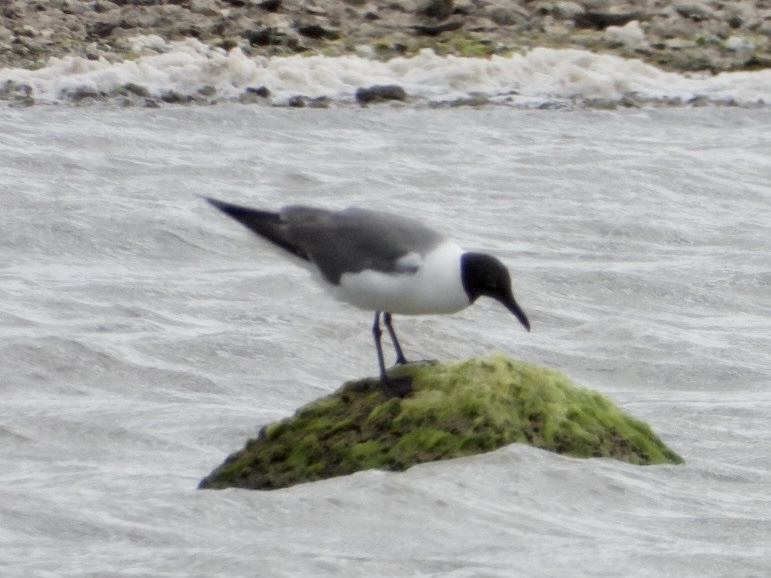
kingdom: Animalia
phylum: Chordata
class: Aves
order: Charadriiformes
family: Laridae
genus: Leucophaeus
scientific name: Leucophaeus atricilla
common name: Laughing gull
